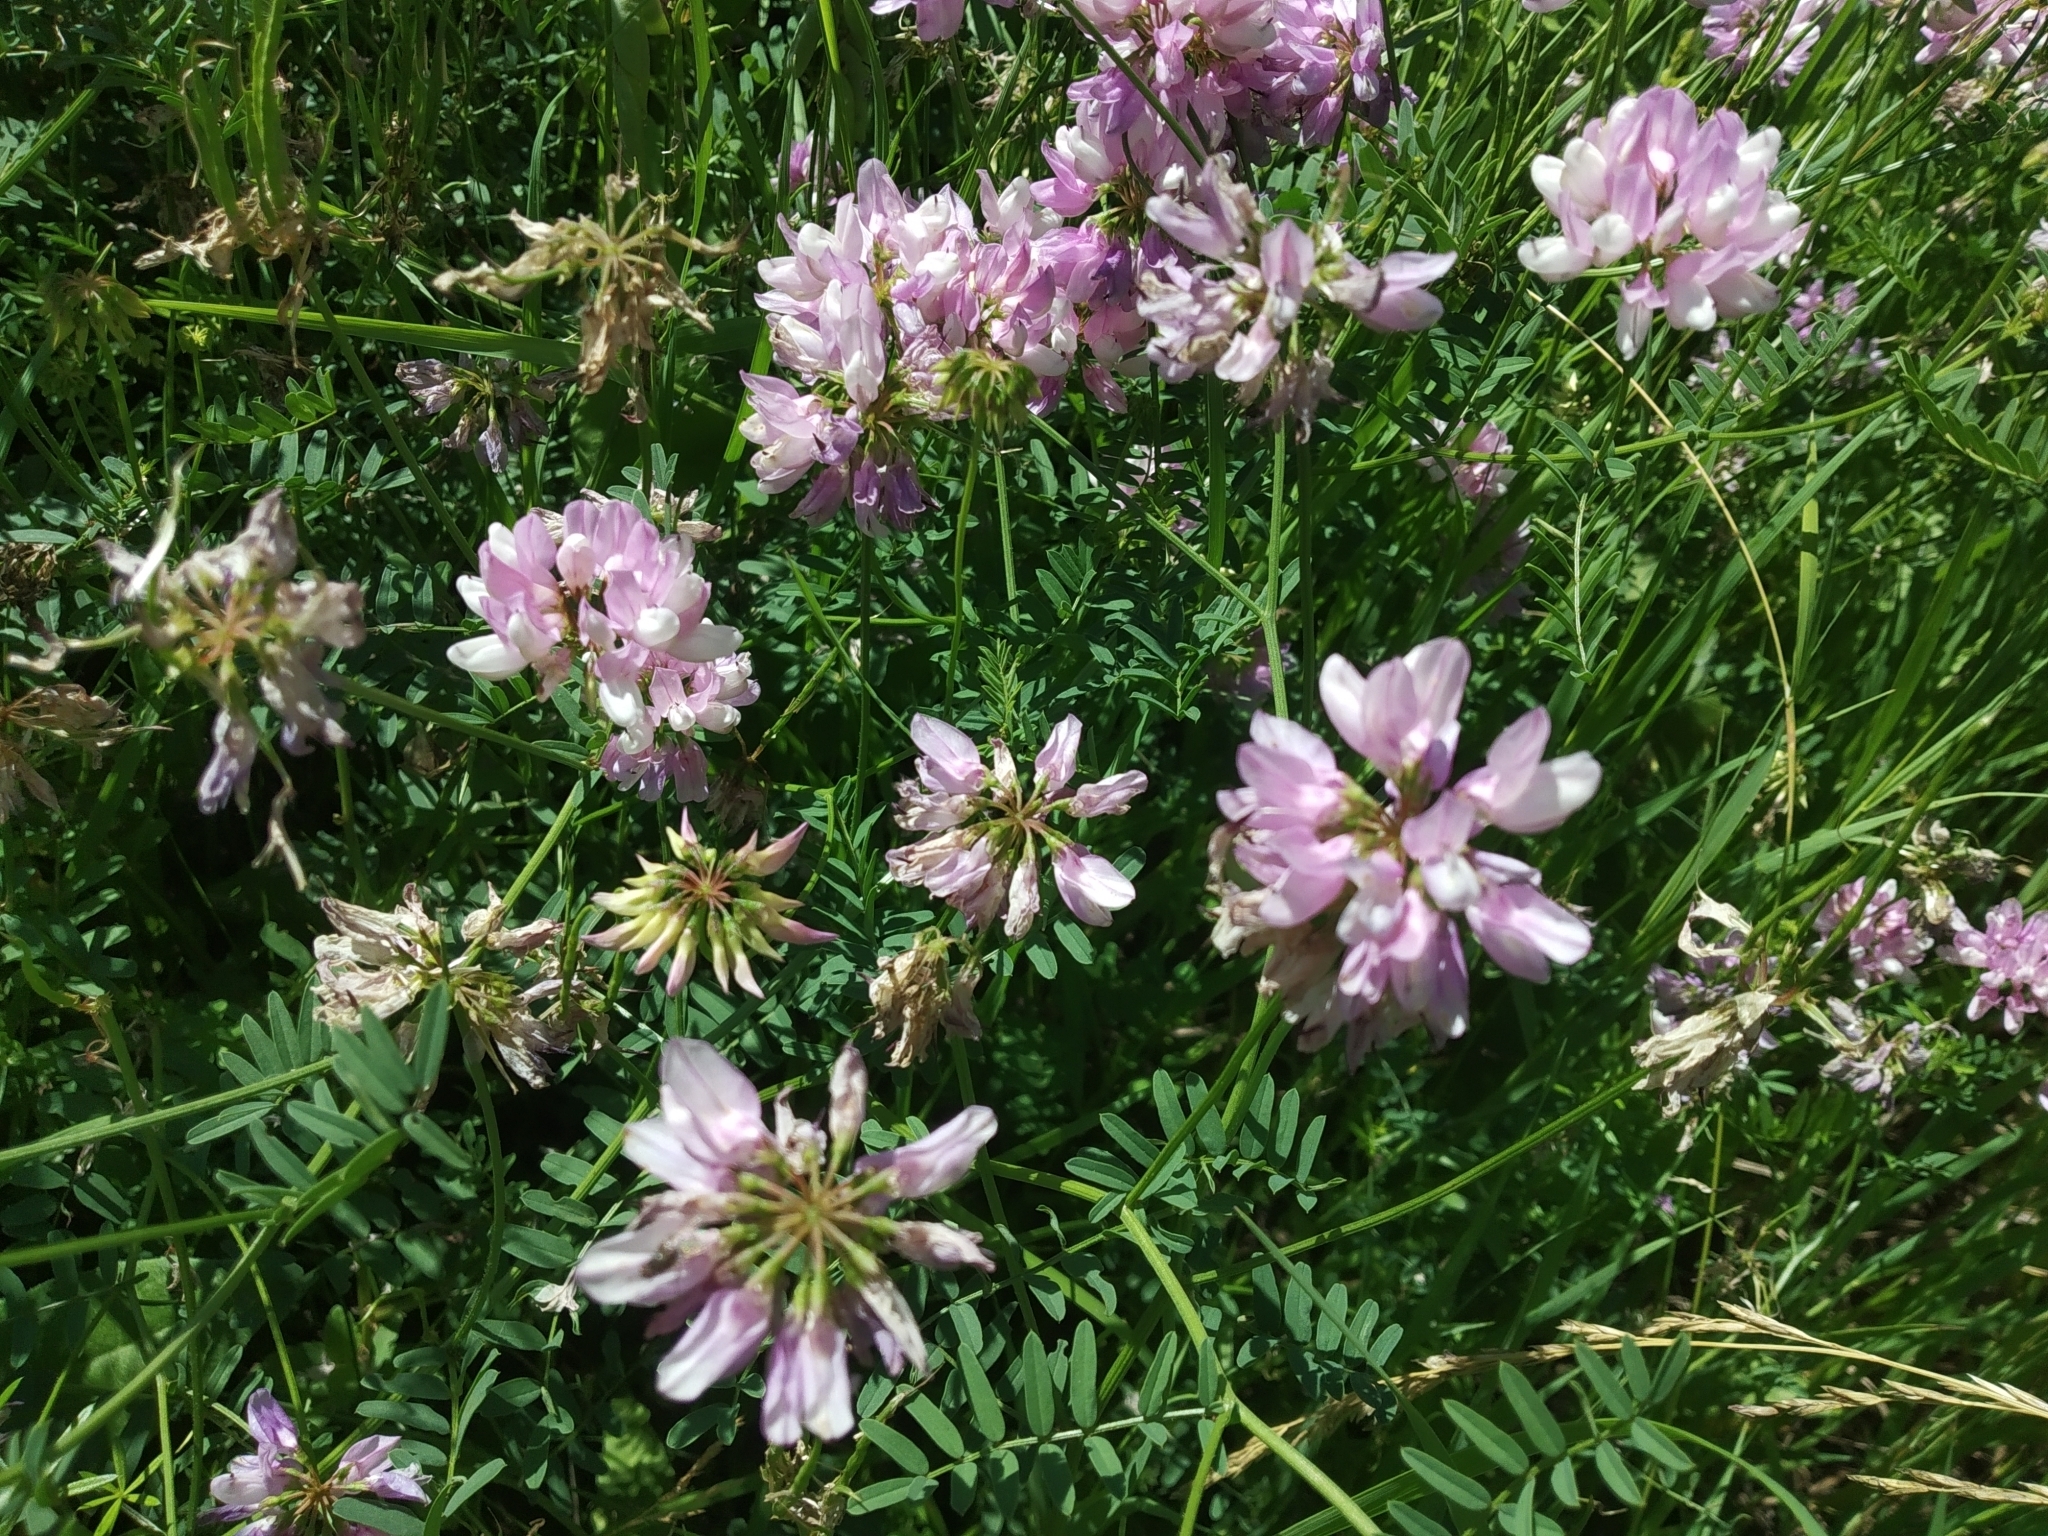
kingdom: Plantae
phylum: Tracheophyta
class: Magnoliopsida
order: Fabales
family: Fabaceae
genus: Coronilla
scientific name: Coronilla varia
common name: Crownvetch
